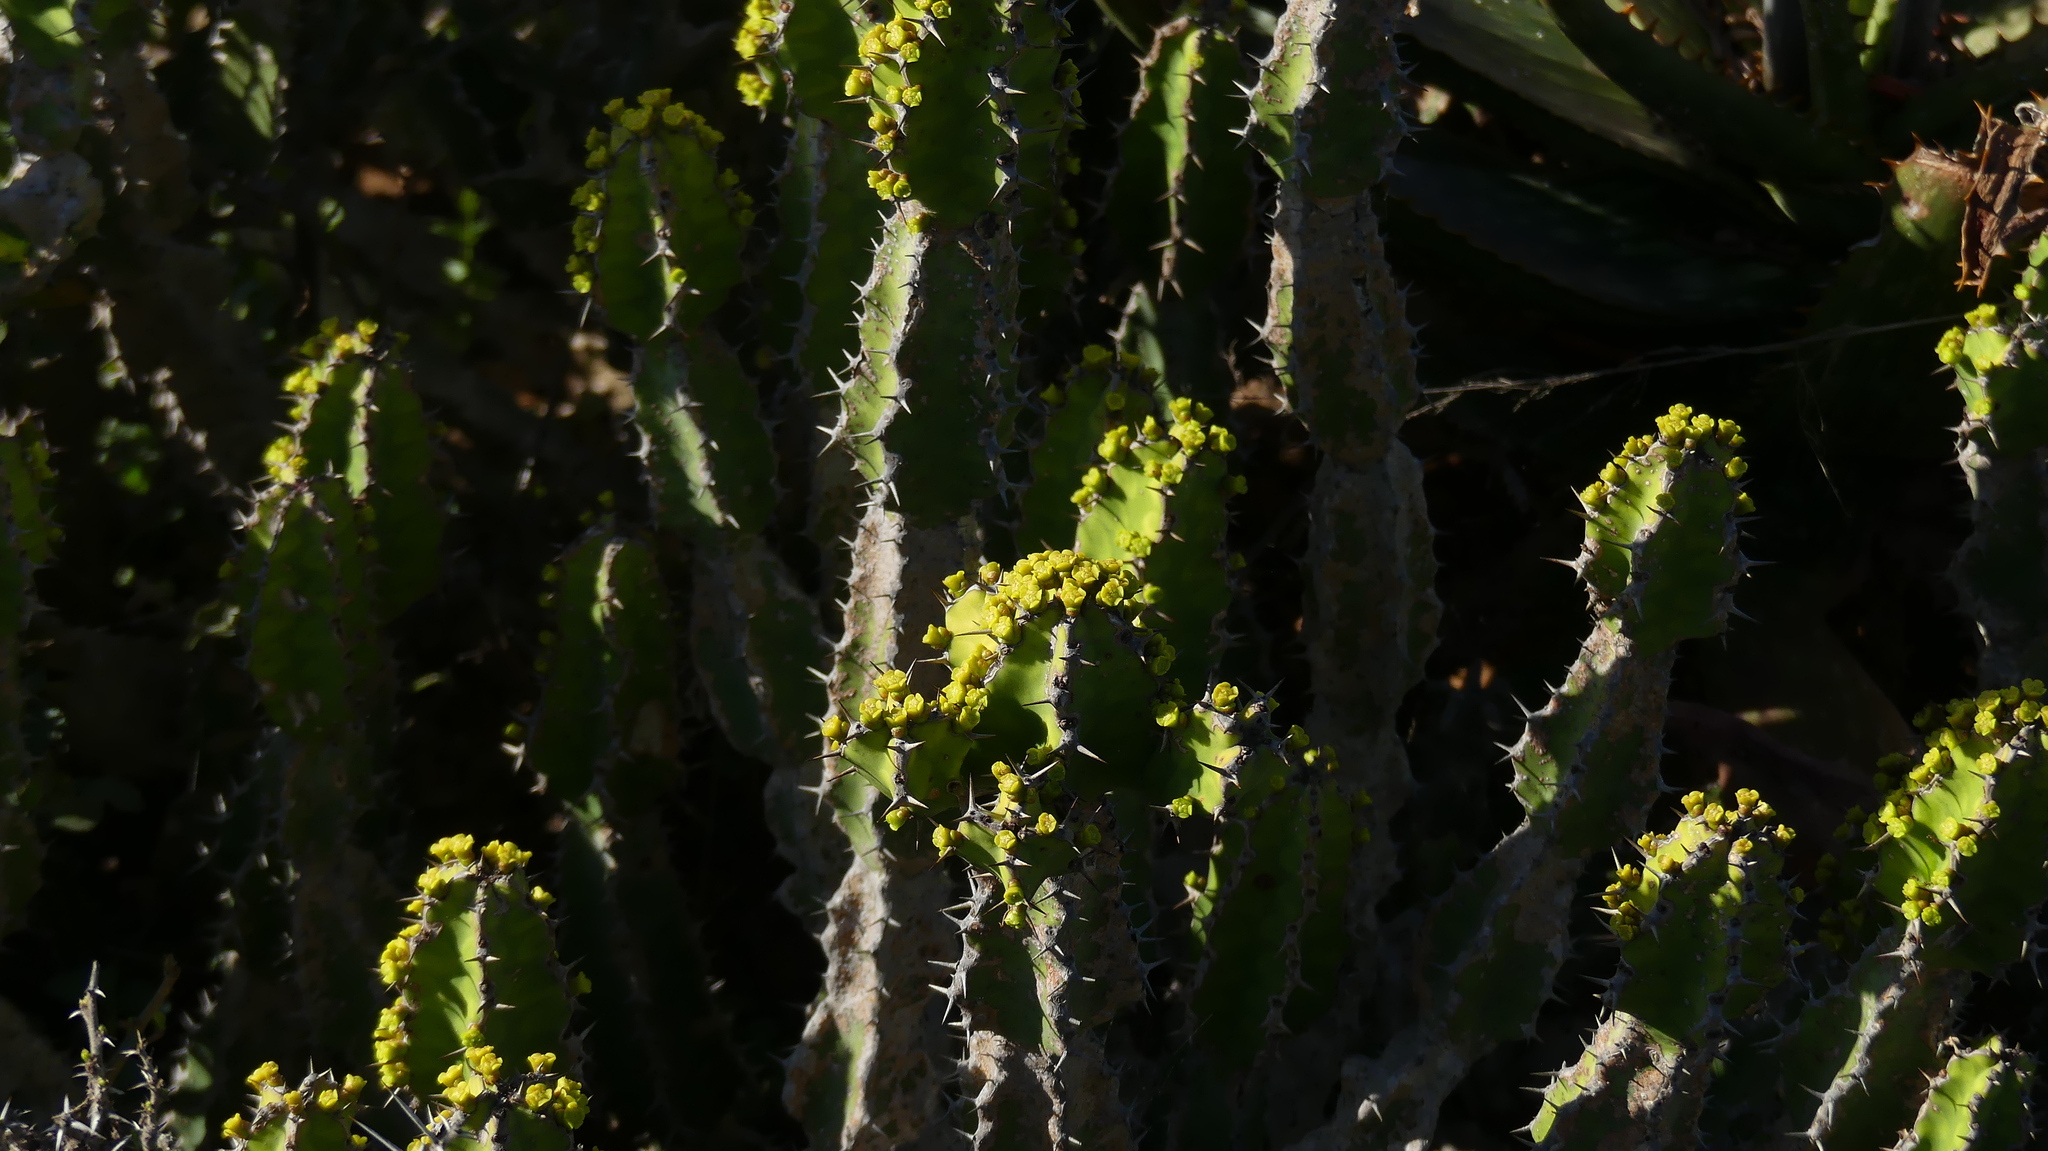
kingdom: Plantae
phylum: Tracheophyta
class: Magnoliopsida
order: Malpighiales
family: Euphorbiaceae
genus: Euphorbia
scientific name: Euphorbia pseudocactus
